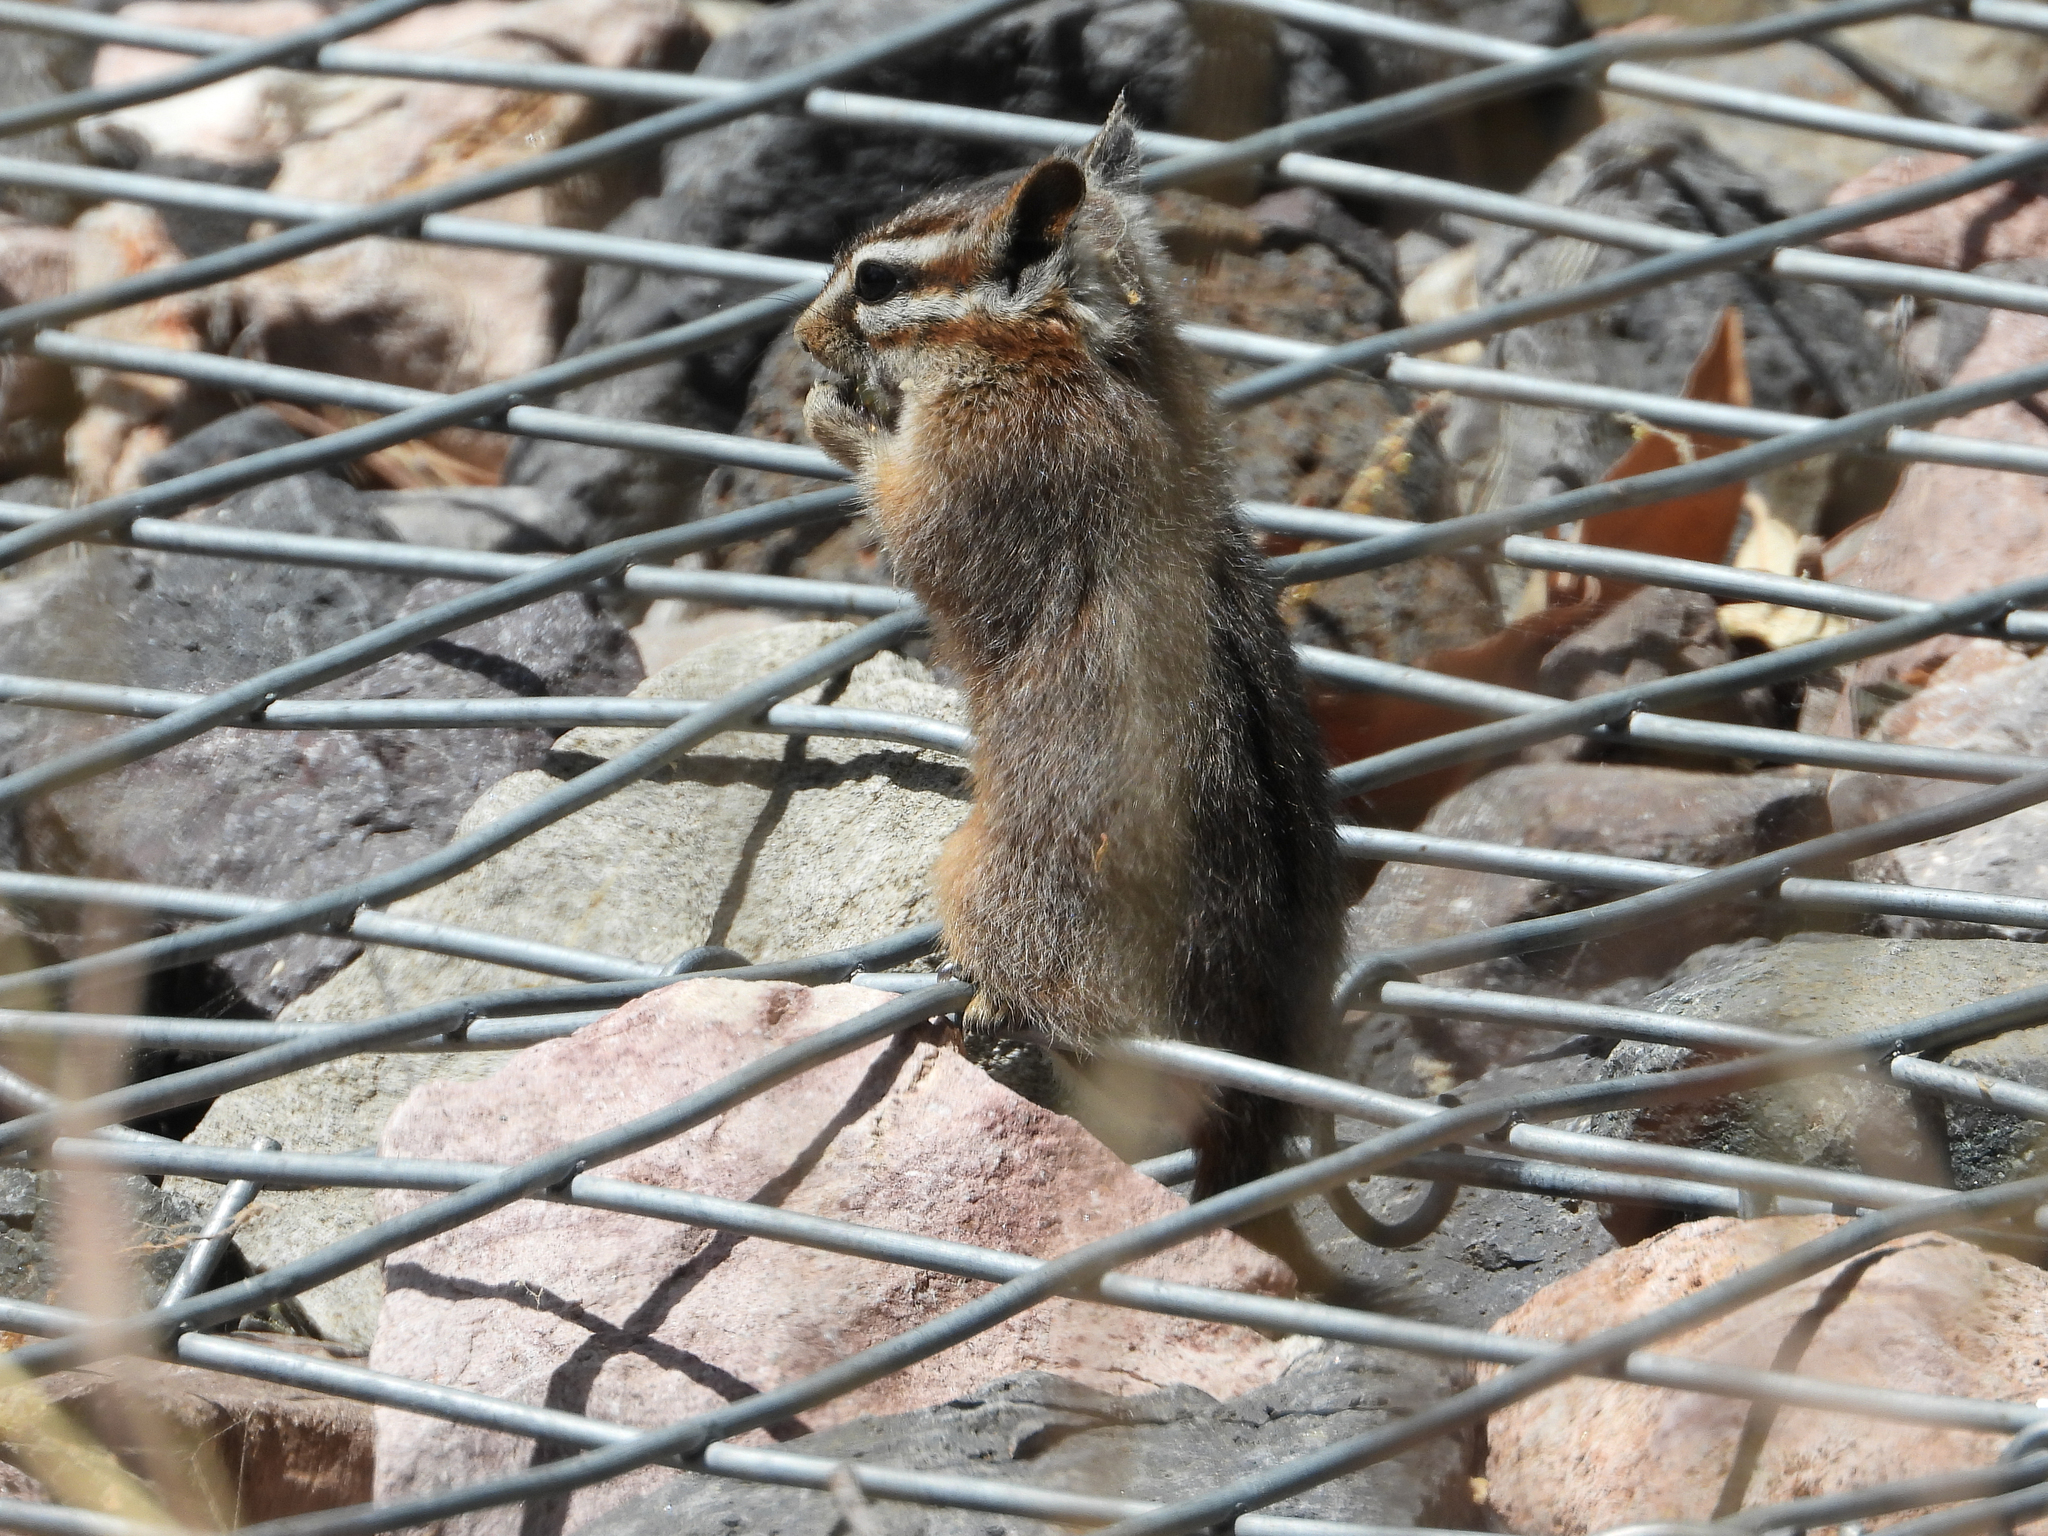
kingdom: Animalia
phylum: Chordata
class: Mammalia
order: Rodentia
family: Sciuridae
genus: Tamias
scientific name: Tamias dorsalis
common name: Cliff chipmunk
